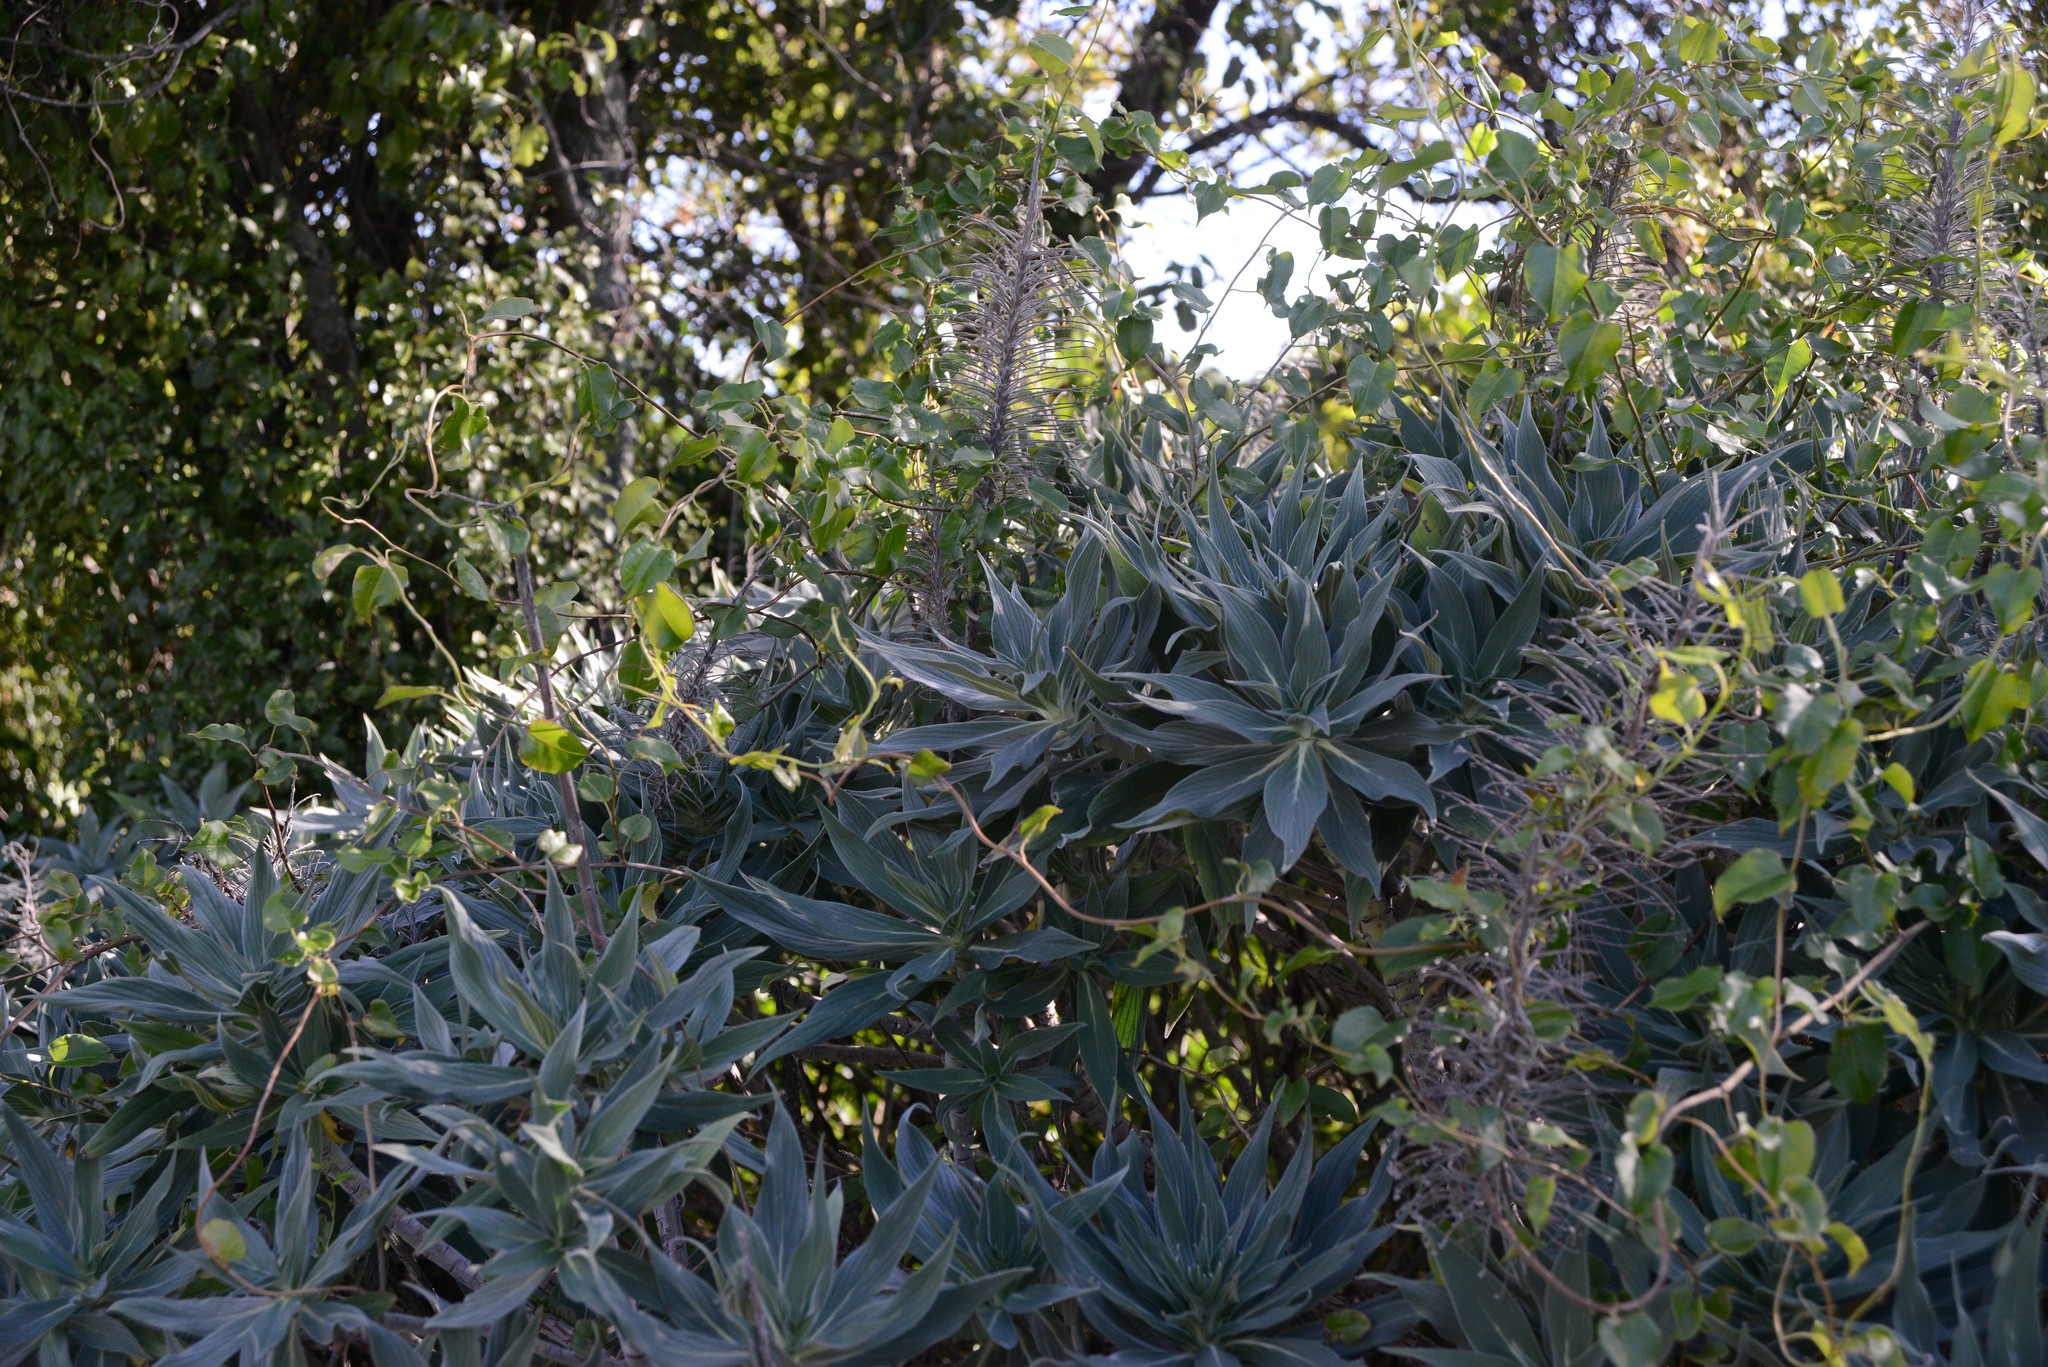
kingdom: Plantae
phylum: Tracheophyta
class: Magnoliopsida
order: Boraginales
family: Boraginaceae
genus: Echium
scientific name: Echium candicans
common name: Pride of madeira
